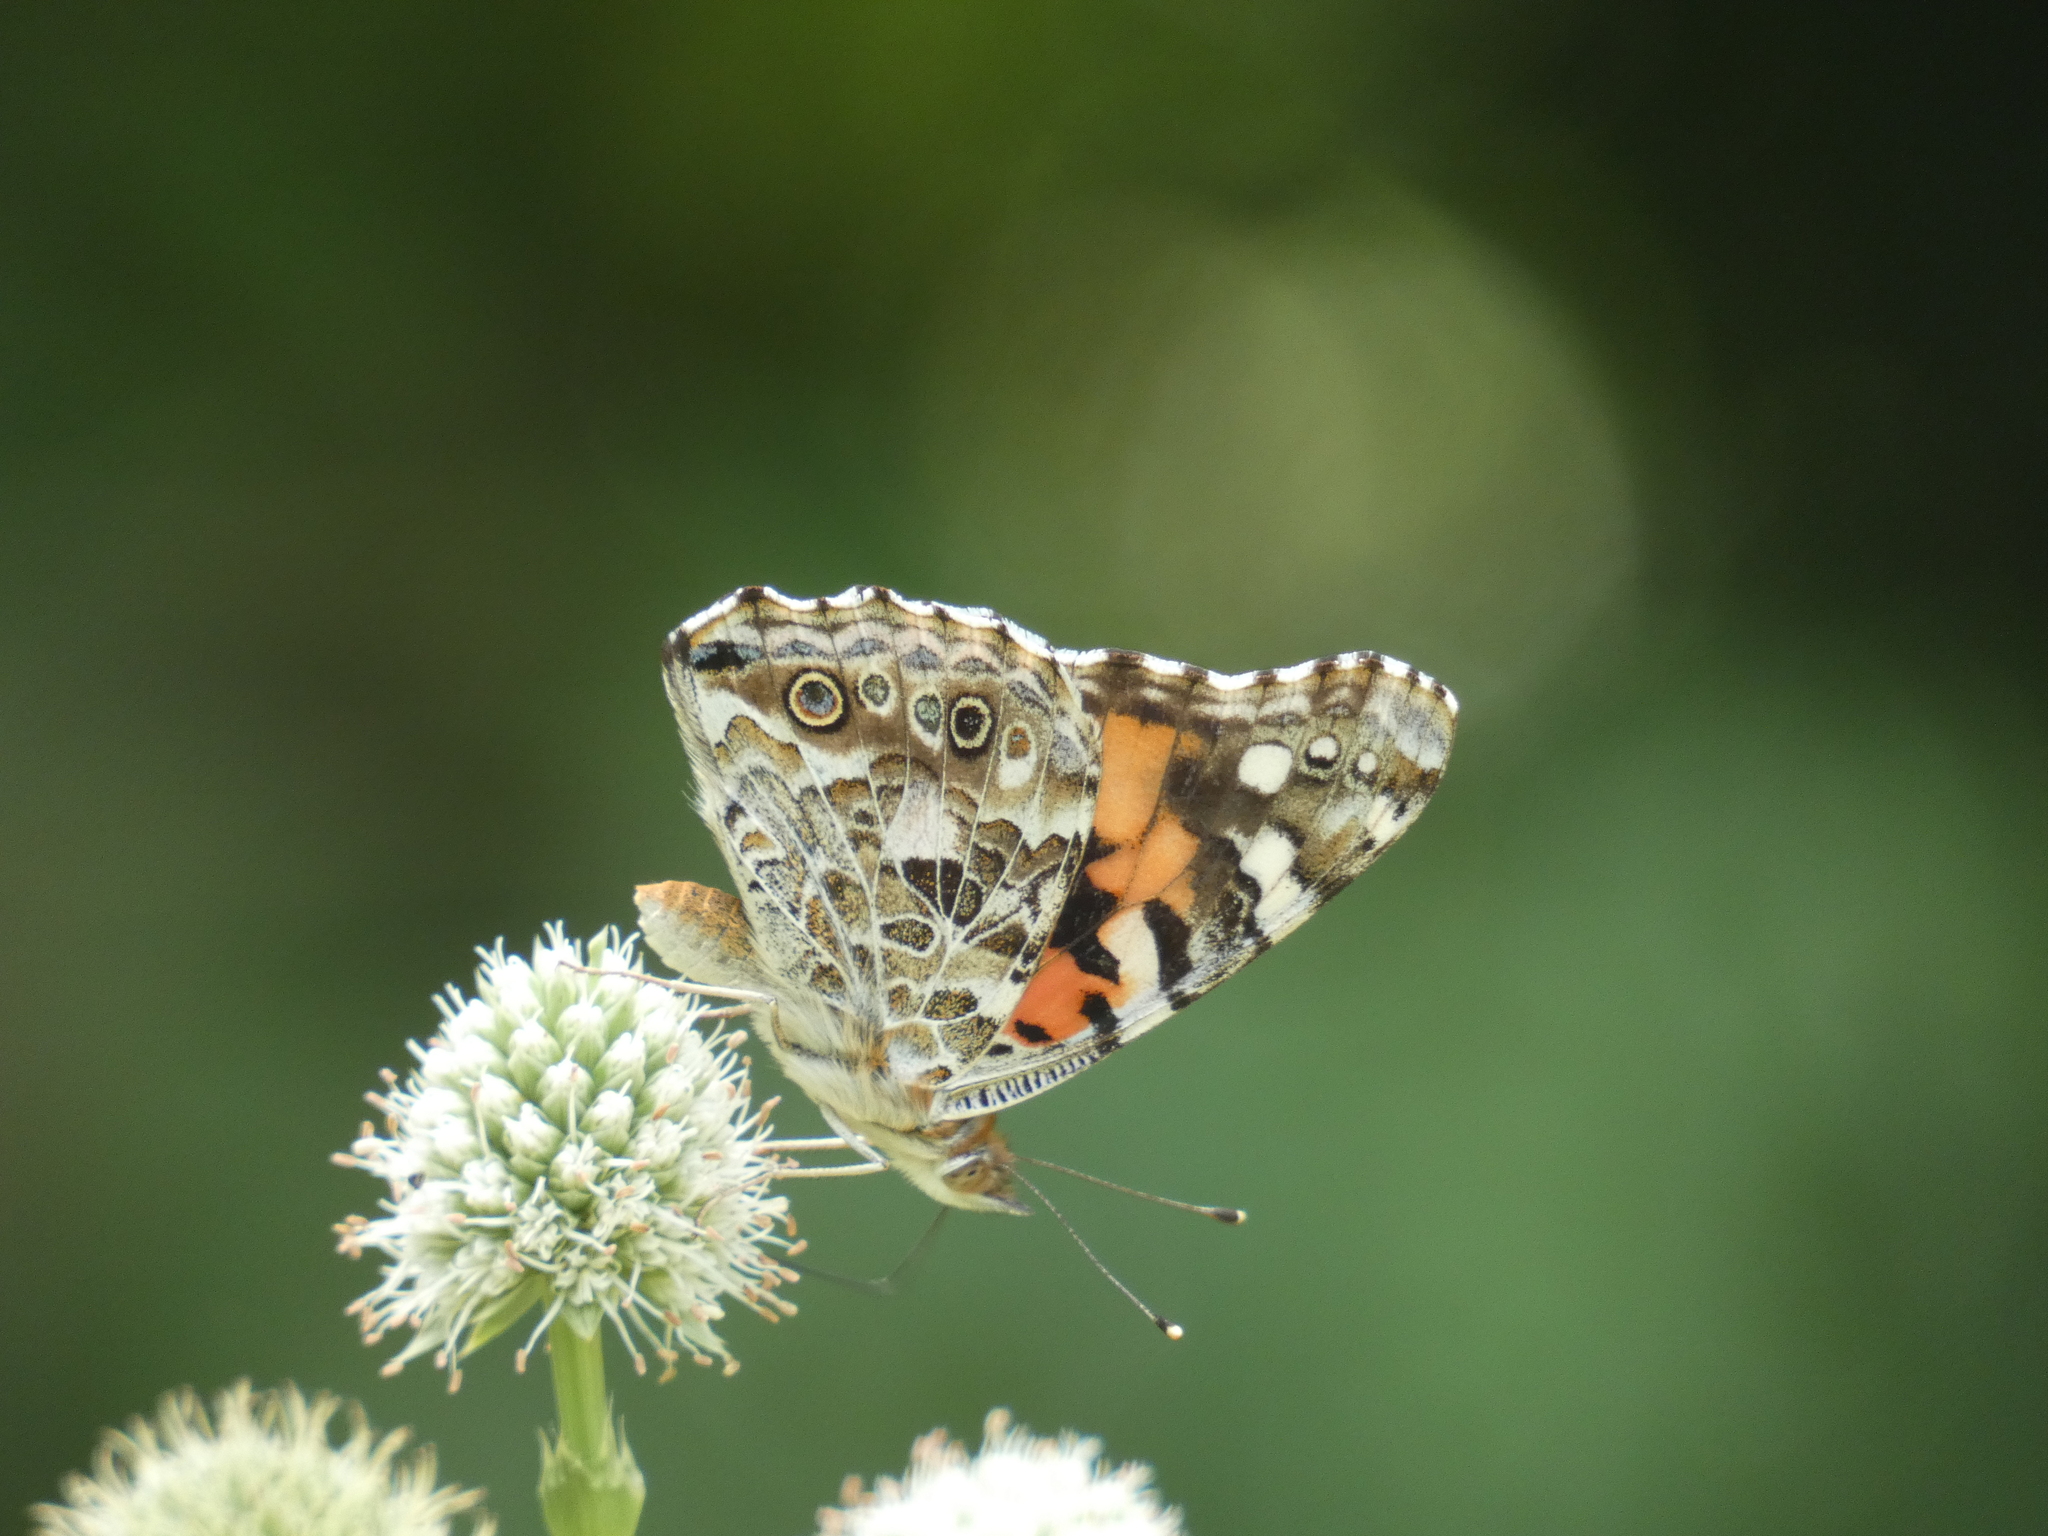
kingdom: Animalia
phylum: Arthropoda
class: Insecta
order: Lepidoptera
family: Nymphalidae
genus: Vanessa
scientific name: Vanessa cardui
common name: Painted lady
